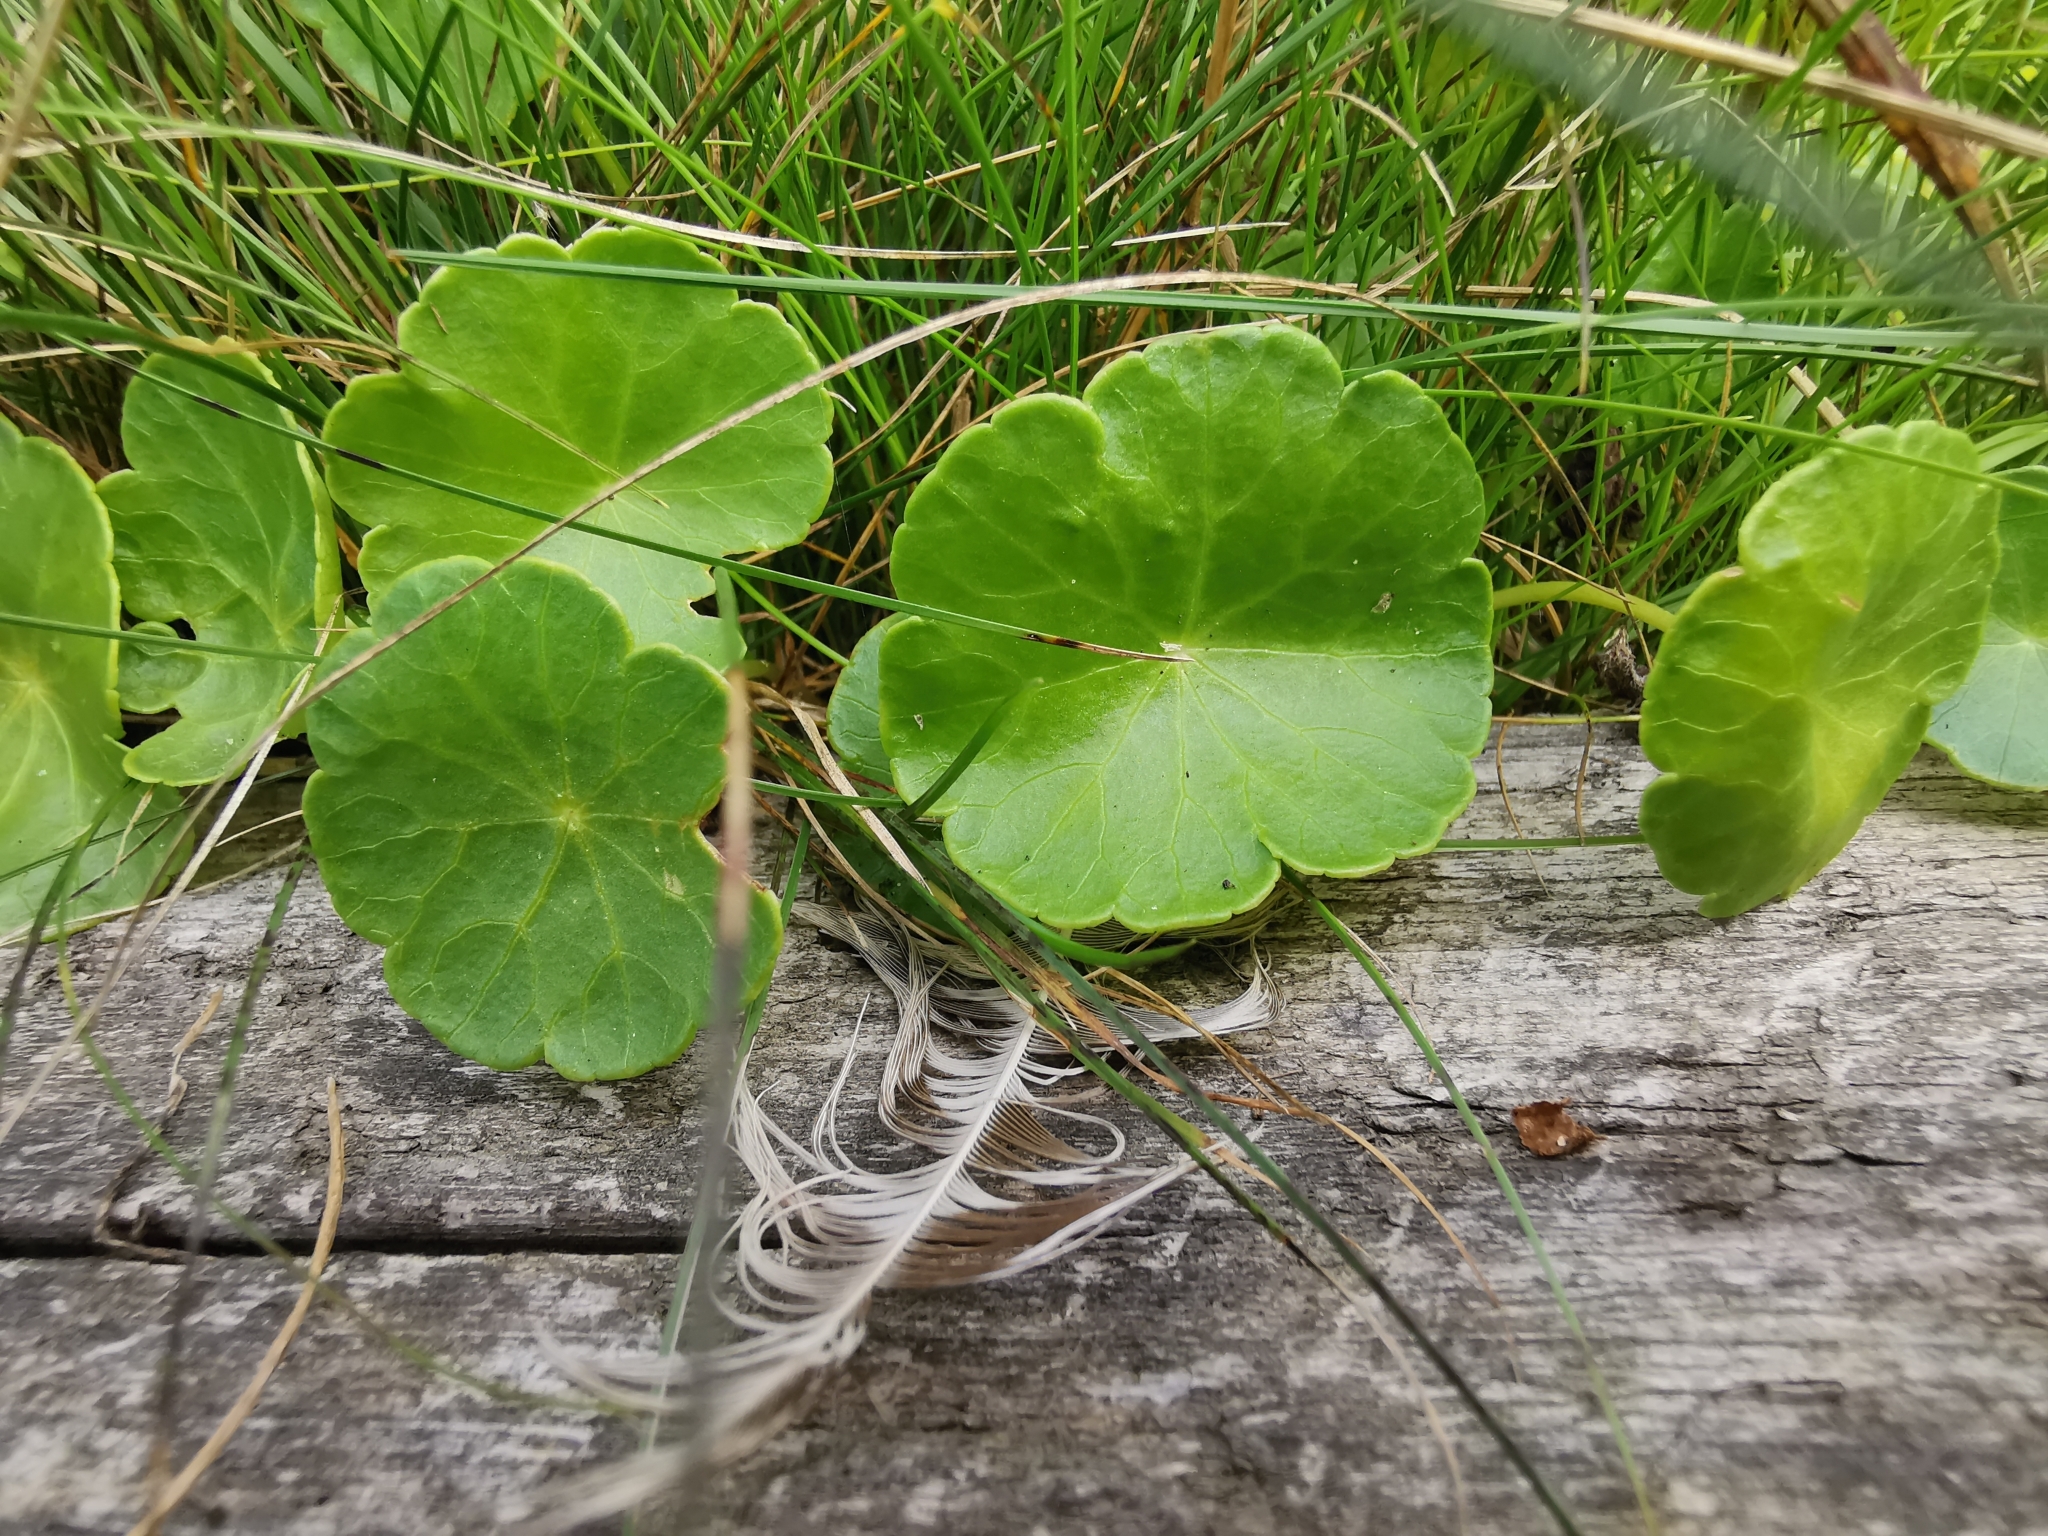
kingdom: Plantae
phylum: Tracheophyta
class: Magnoliopsida
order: Apiales
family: Araliaceae
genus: Hydrocotyle
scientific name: Hydrocotyle vulgaris
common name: Marsh pennywort
